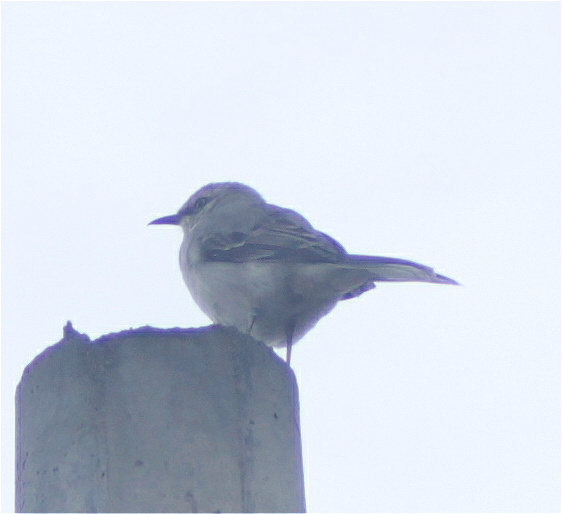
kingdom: Animalia
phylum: Chordata
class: Aves
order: Passeriformes
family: Mimidae
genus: Mimus
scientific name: Mimus gilvus
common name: Tropical mockingbird
